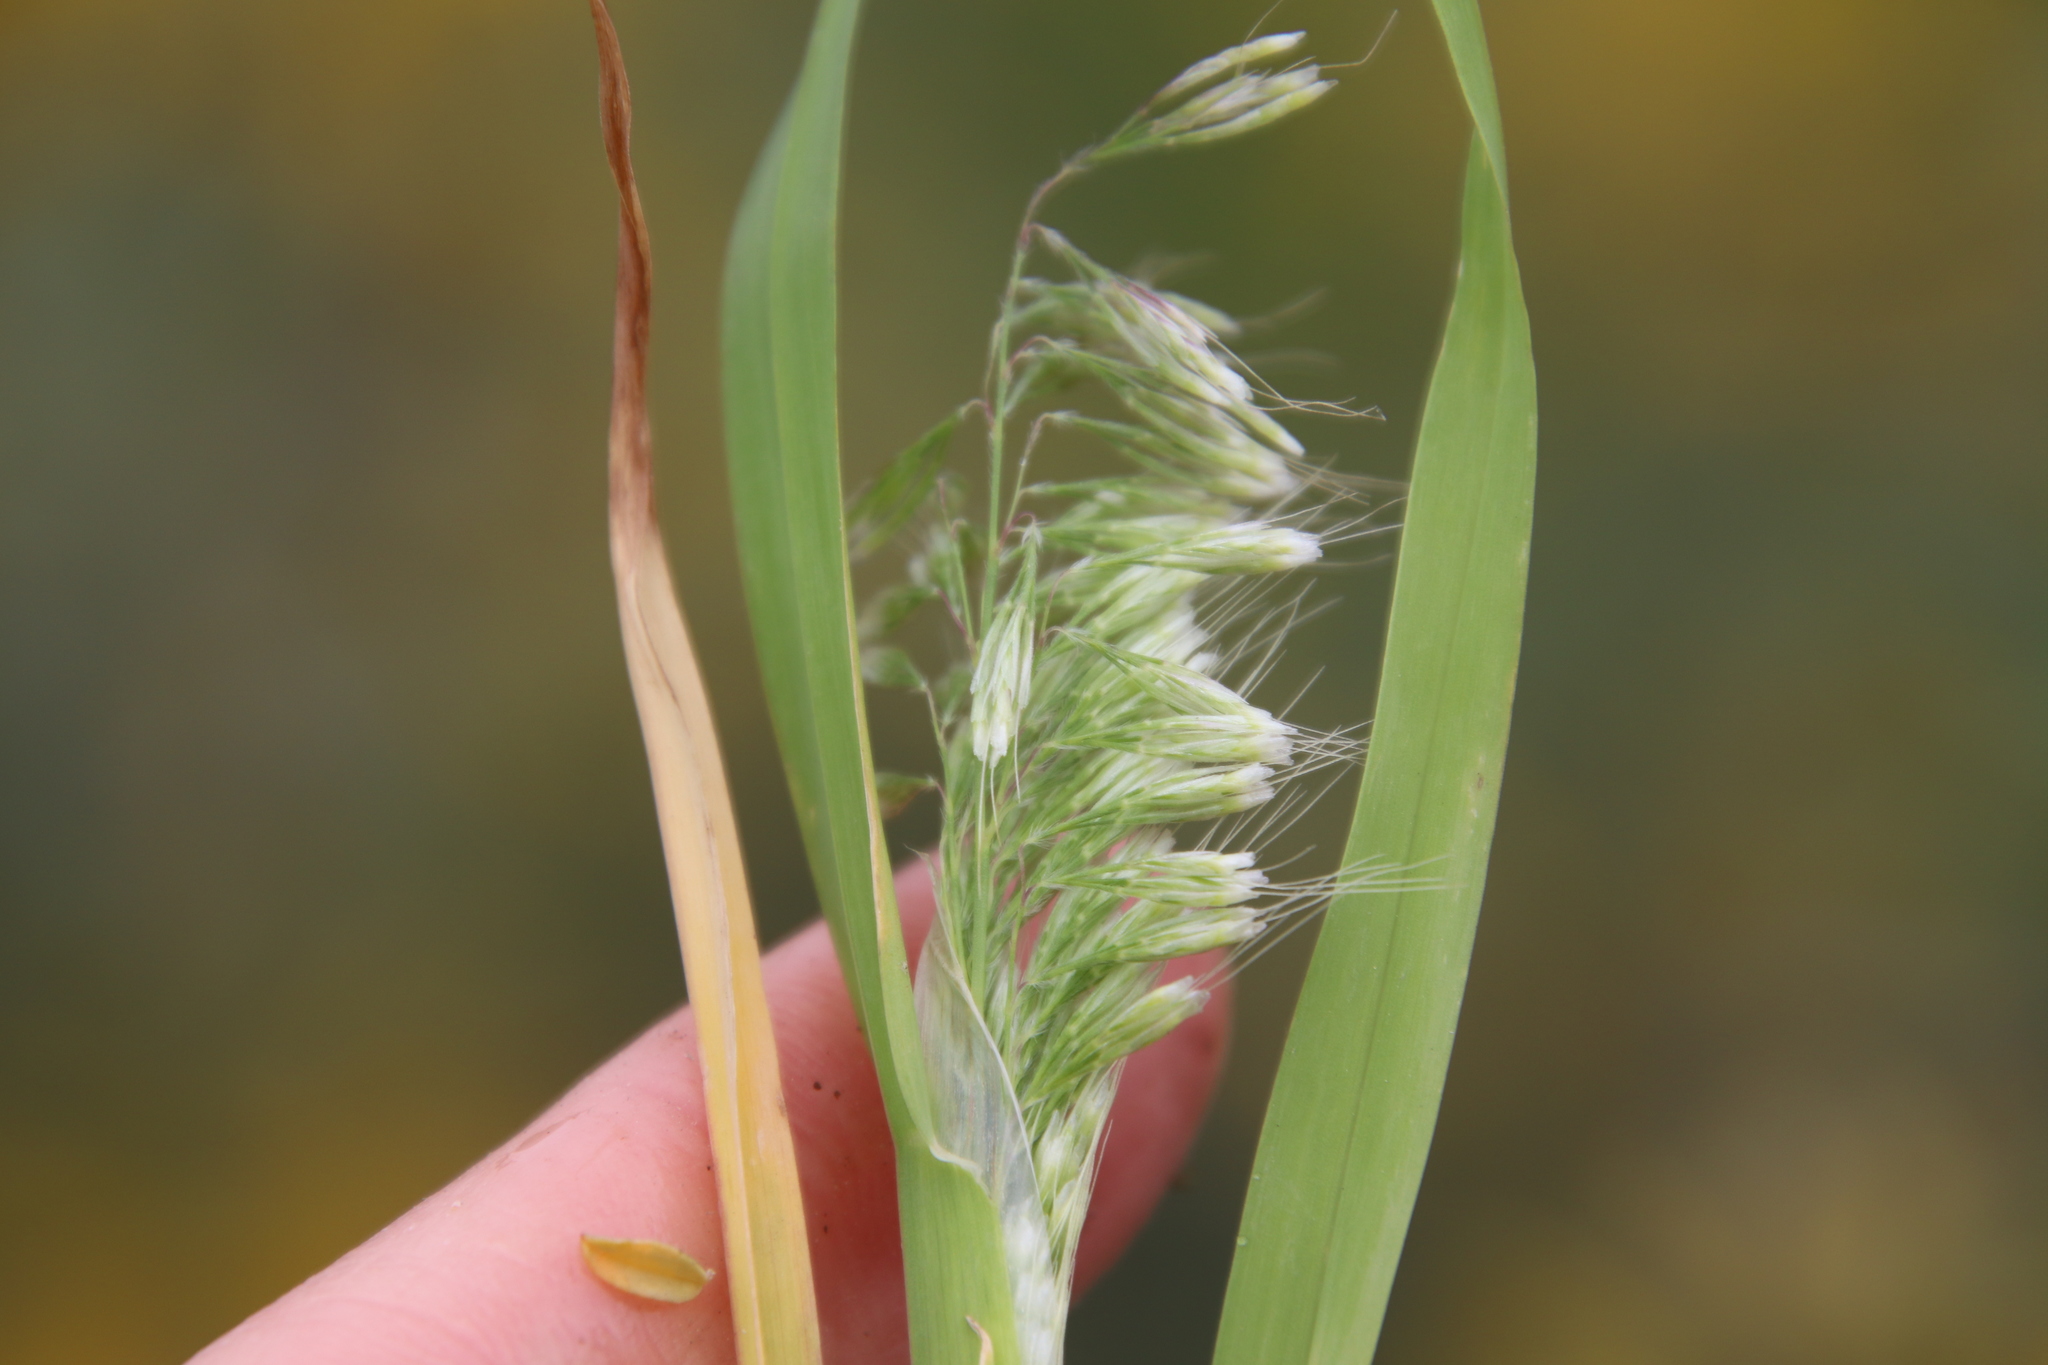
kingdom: Plantae
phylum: Tracheophyta
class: Liliopsida
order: Poales
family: Poaceae
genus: Lamarckia
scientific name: Lamarckia aurea
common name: Golden dog's-tail
